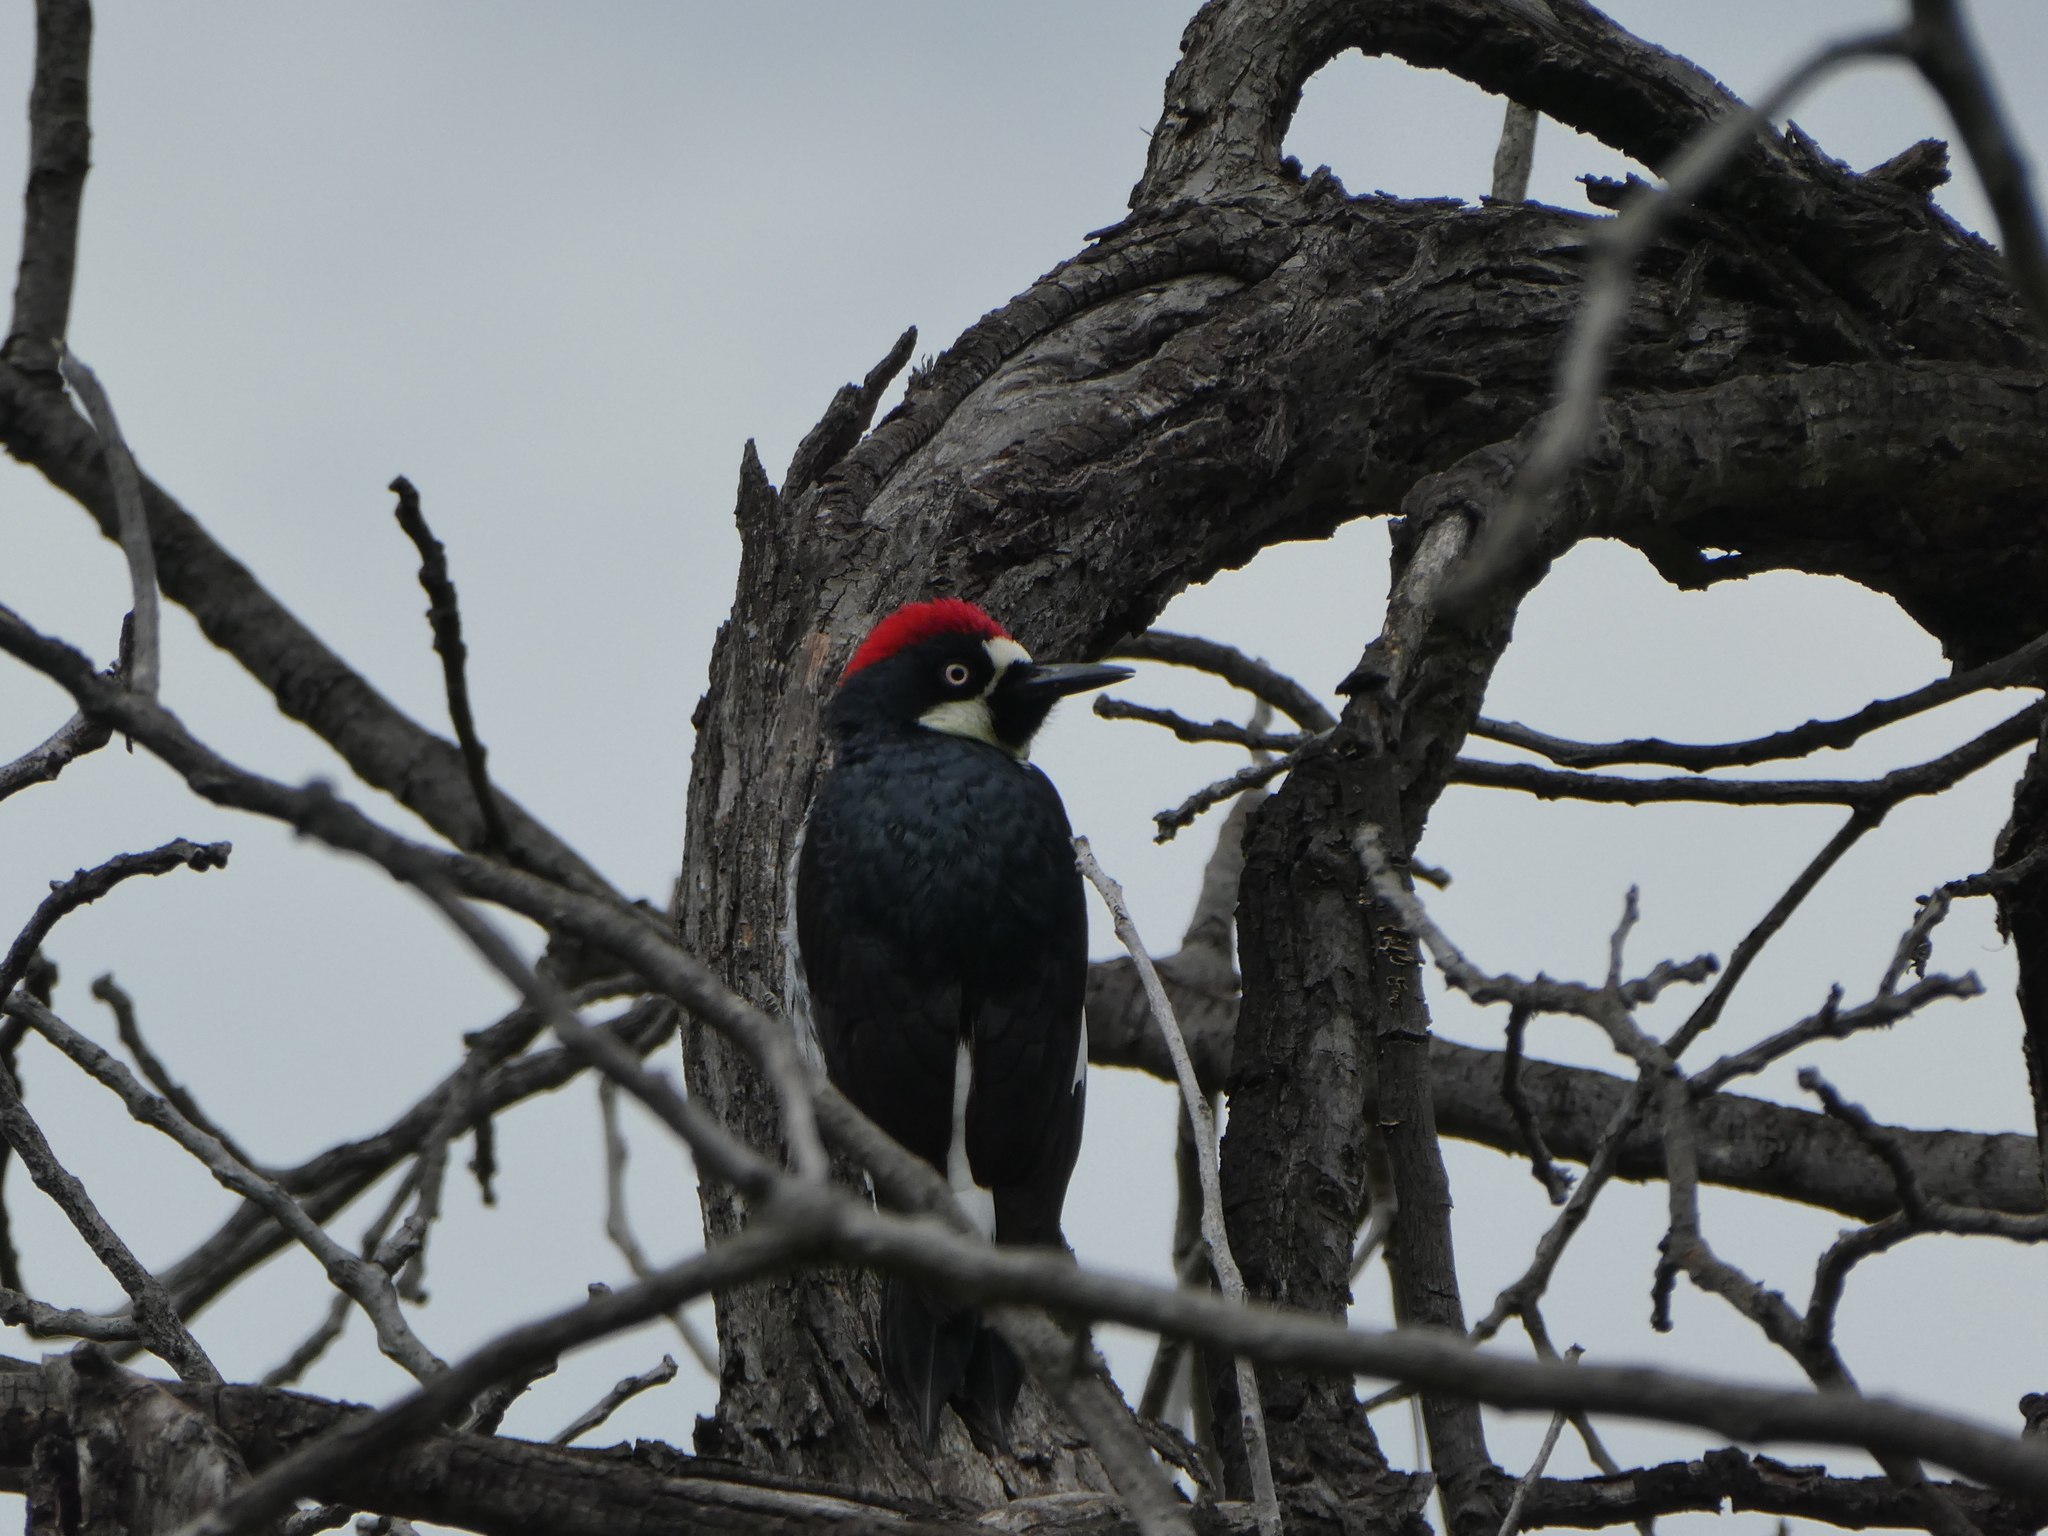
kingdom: Animalia
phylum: Chordata
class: Aves
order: Piciformes
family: Picidae
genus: Melanerpes
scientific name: Melanerpes formicivorus
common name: Acorn woodpecker
